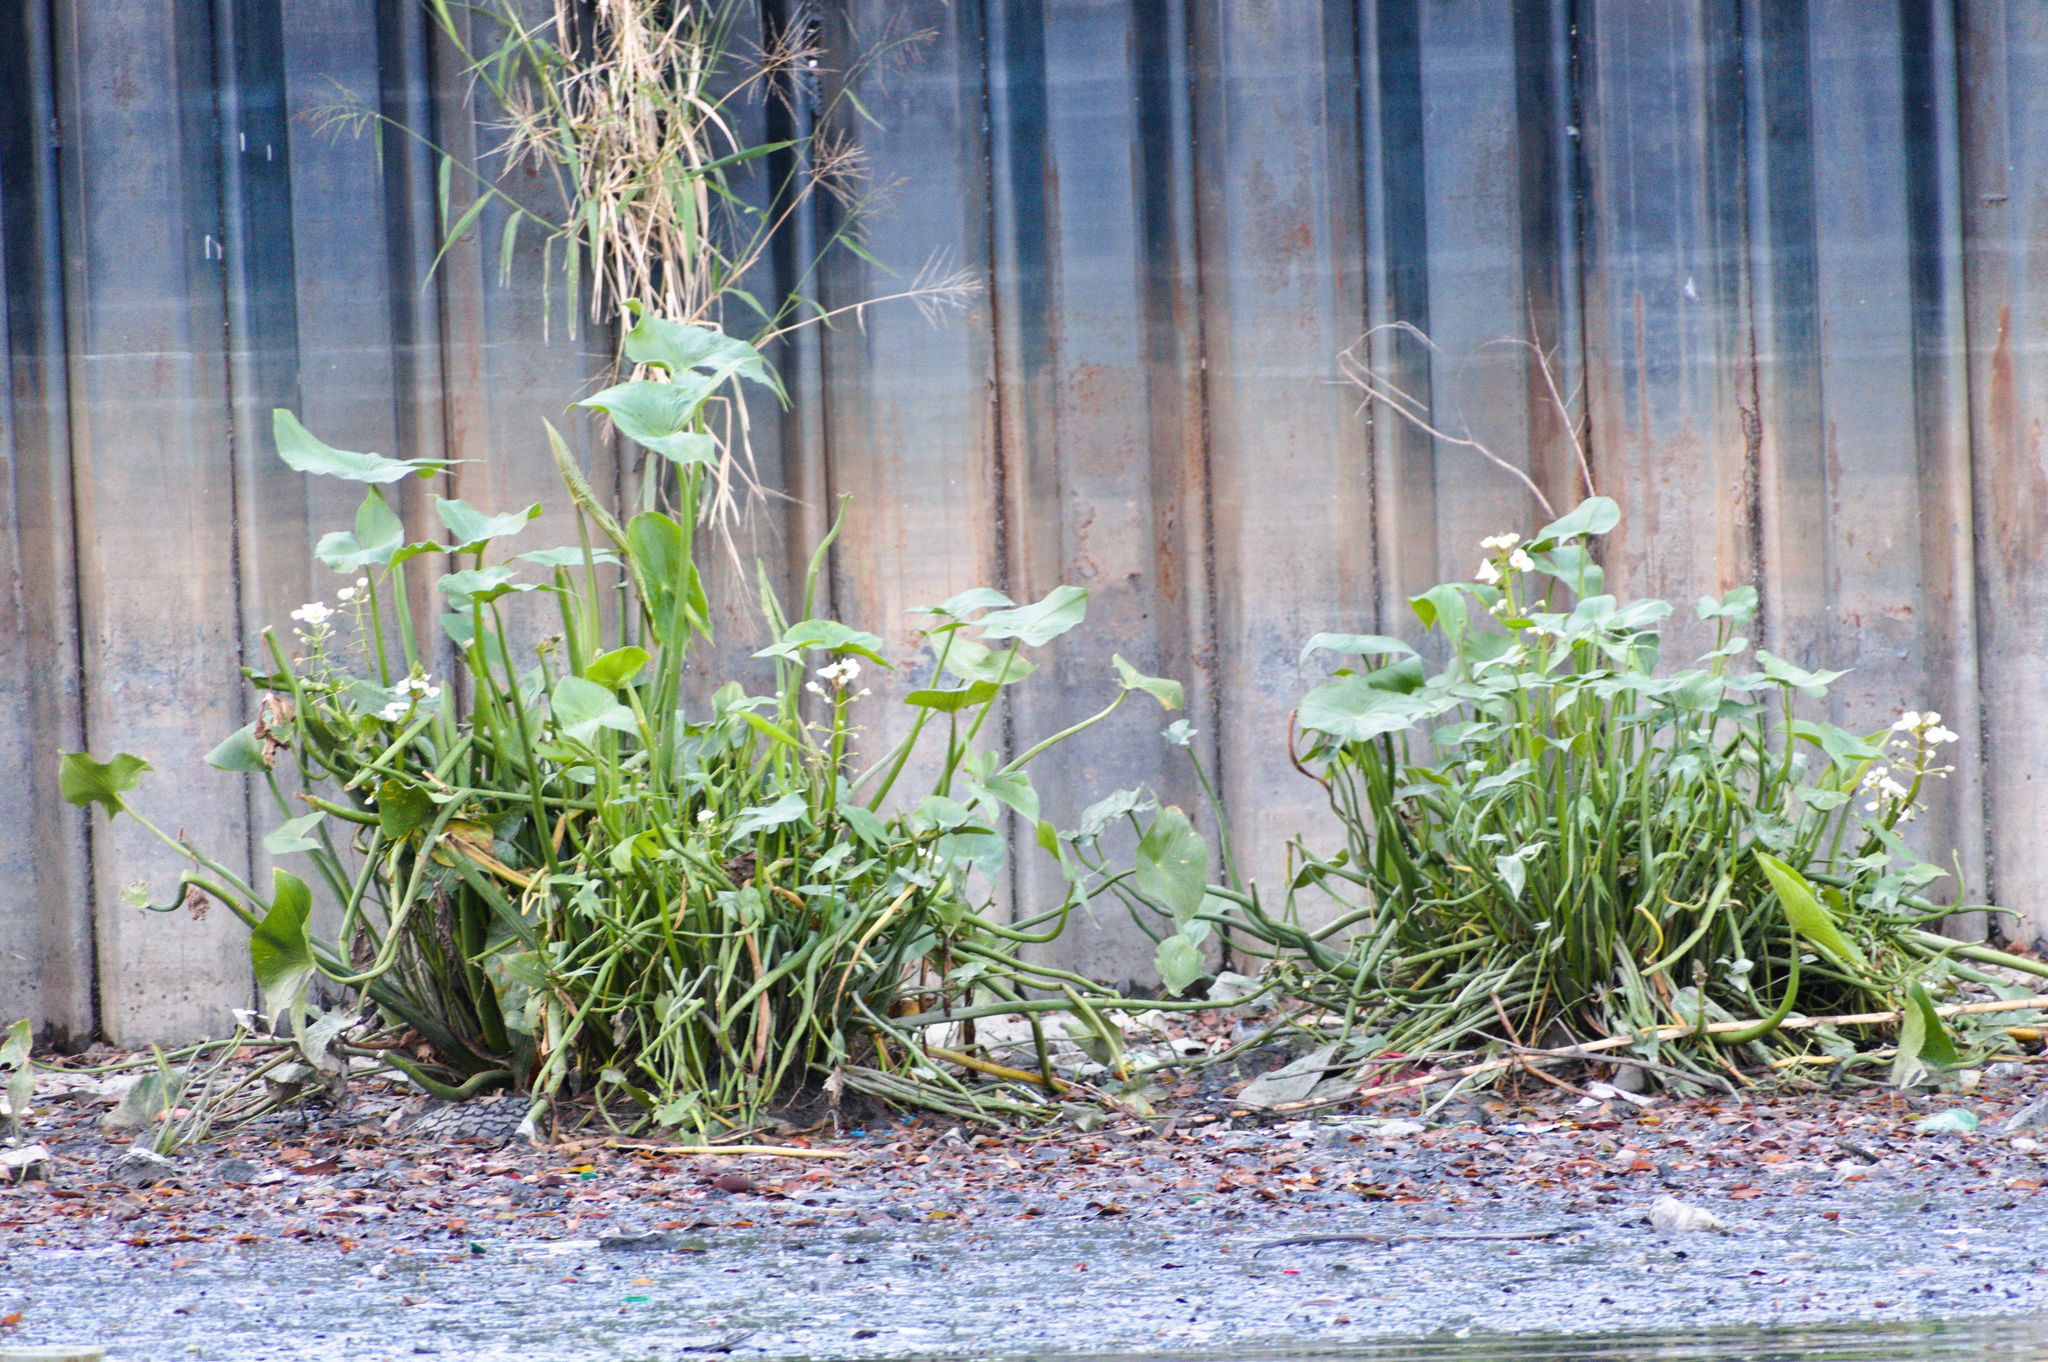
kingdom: Plantae
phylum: Tracheophyta
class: Liliopsida
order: Alismatales
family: Alismataceae
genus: Sagittaria
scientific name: Sagittaria montevidensis
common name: Giant arrowhead
